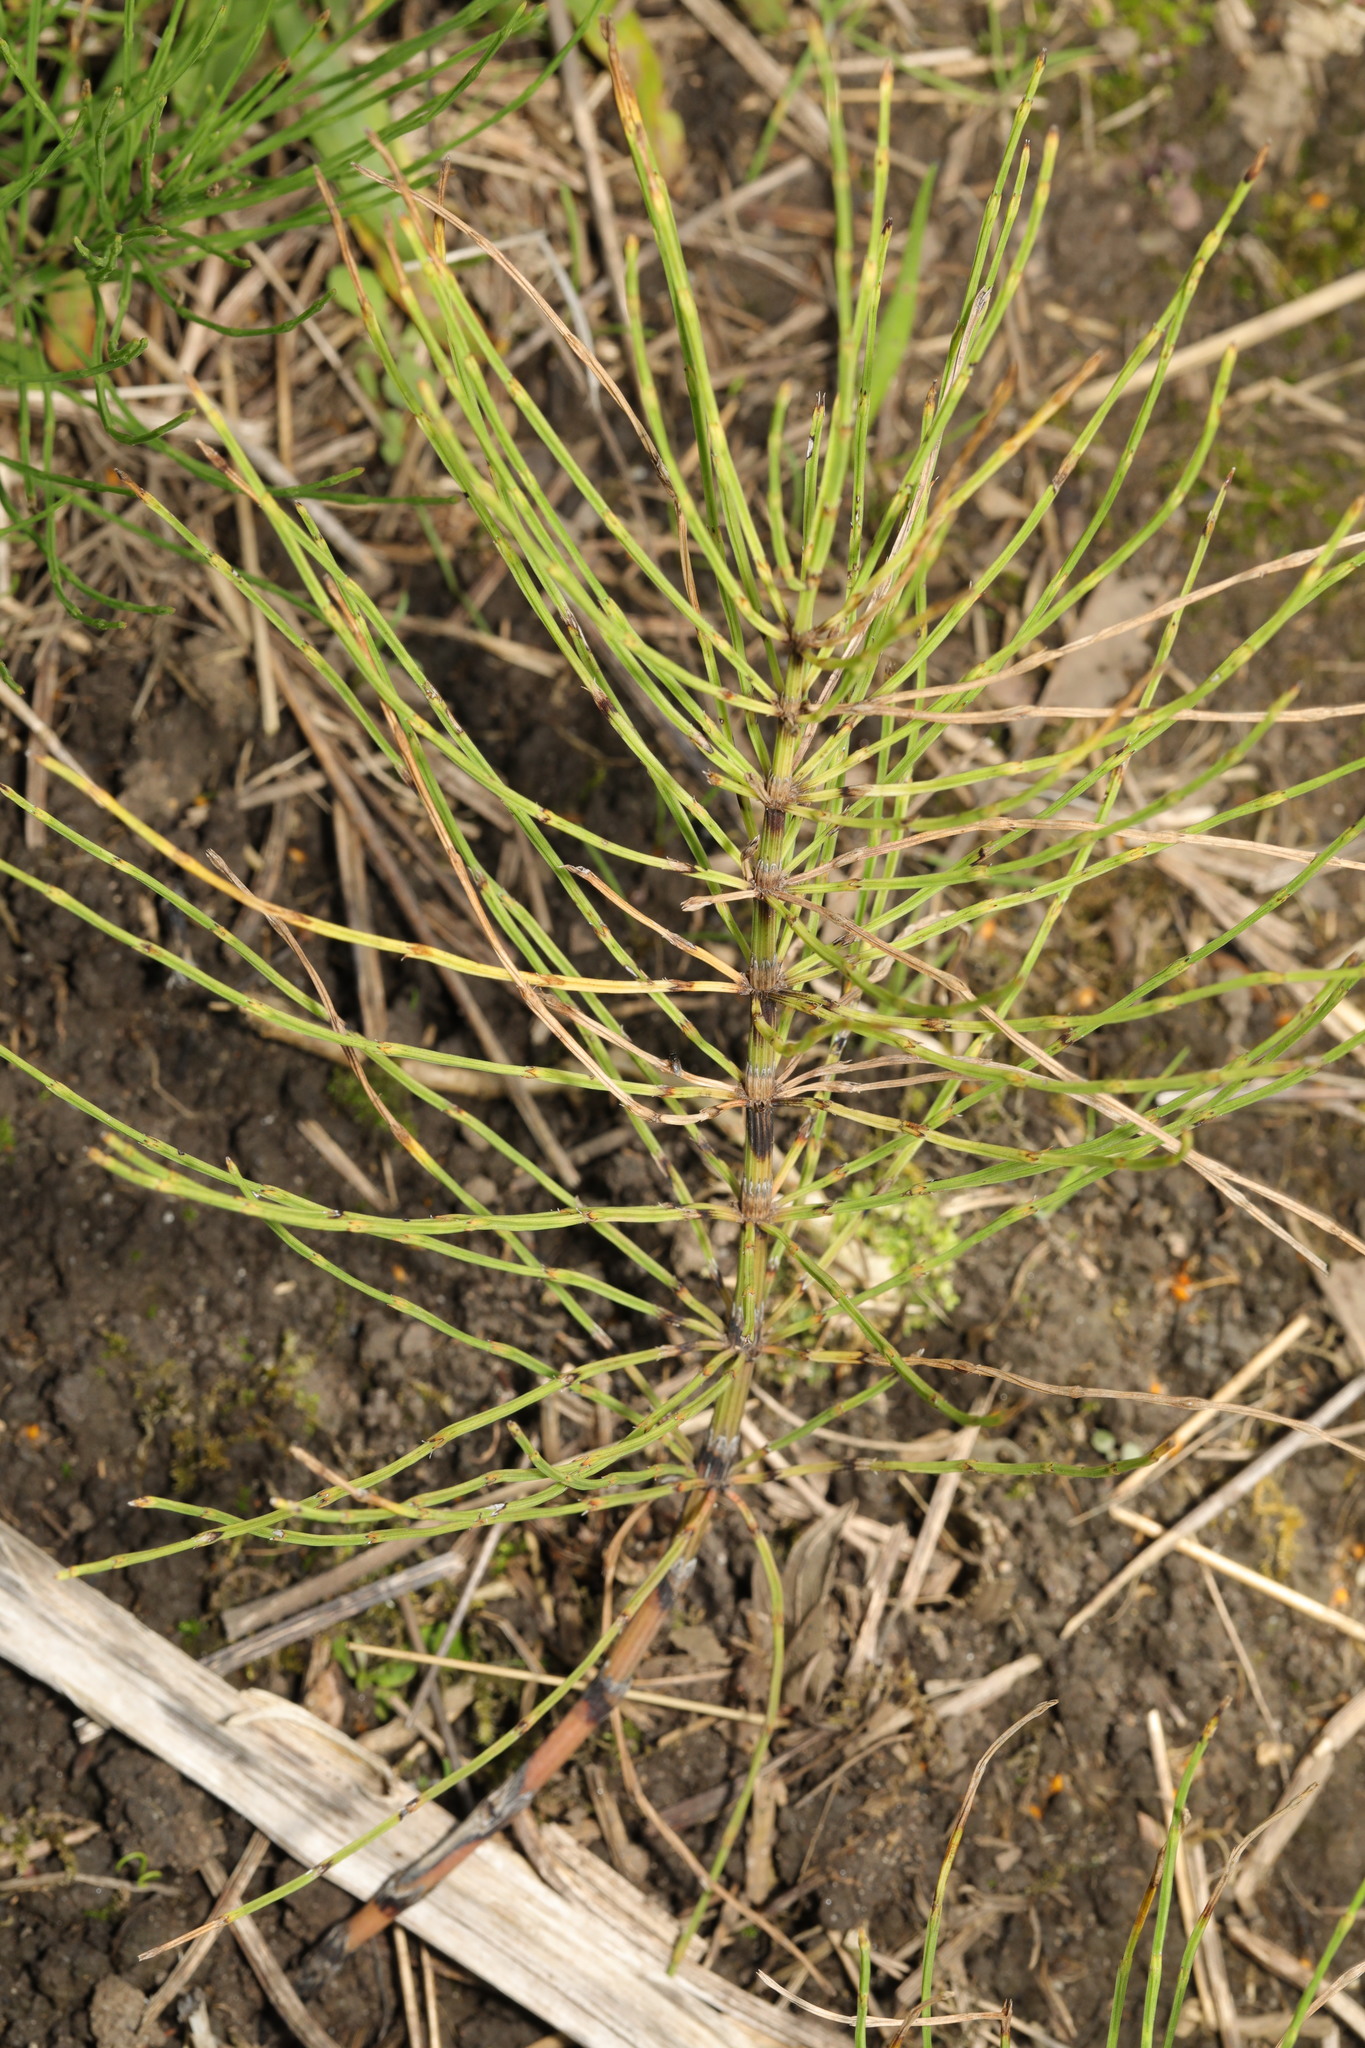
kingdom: Plantae
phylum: Tracheophyta
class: Polypodiopsida
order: Equisetales
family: Equisetaceae
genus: Equisetum
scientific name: Equisetum arvense
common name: Field horsetail
